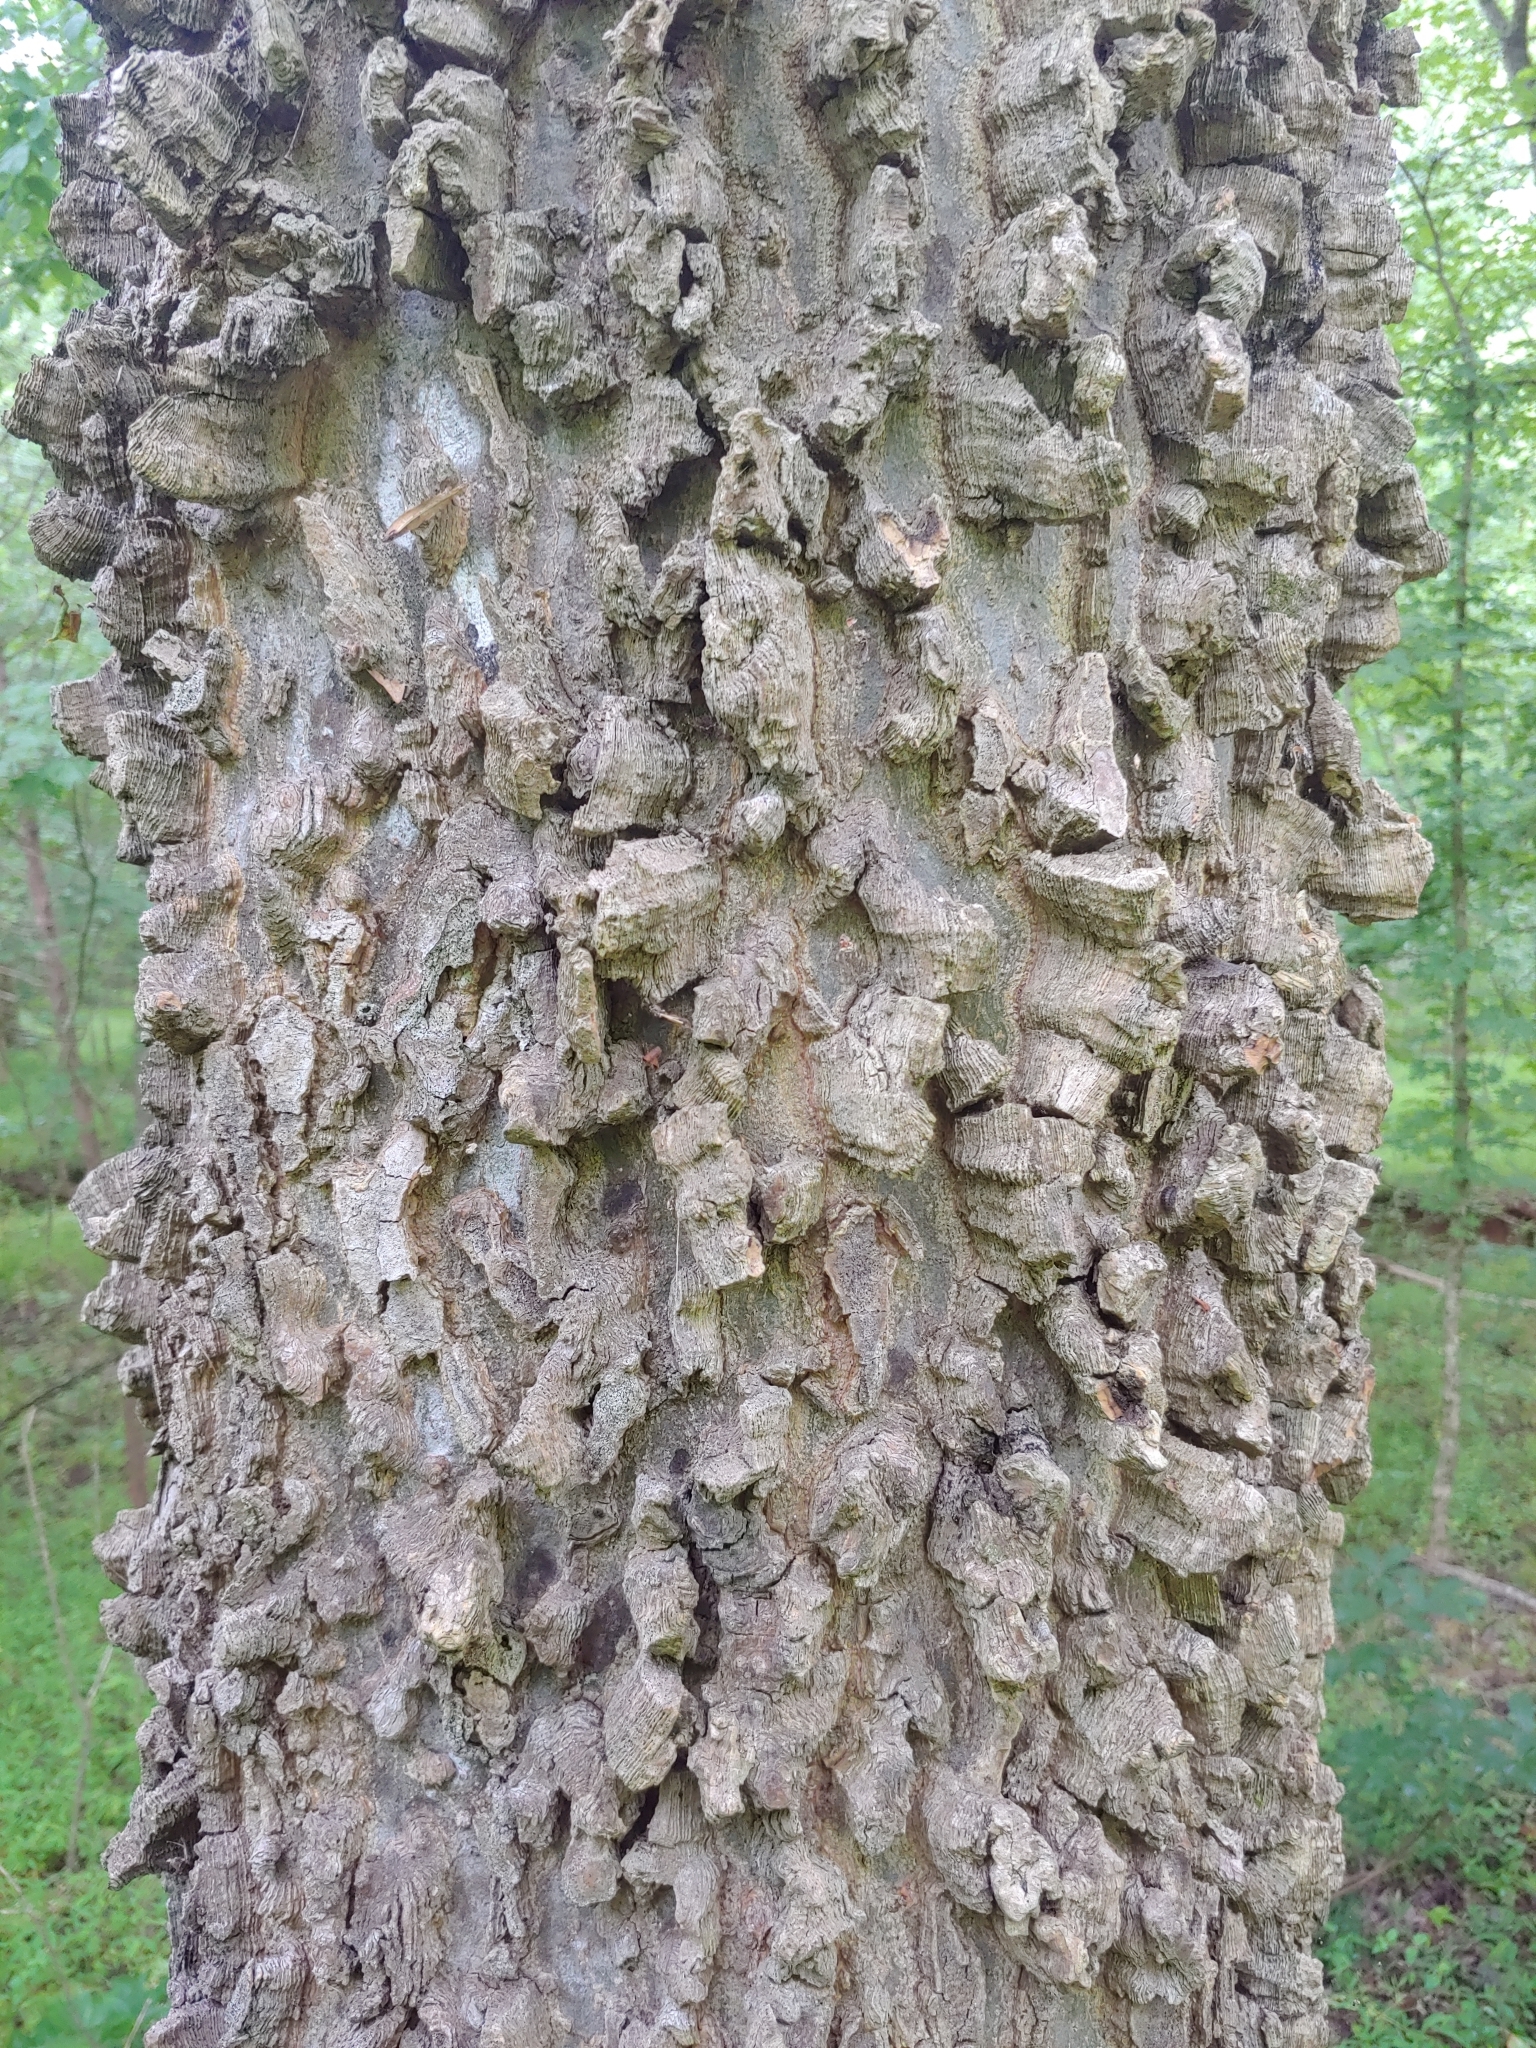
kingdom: Plantae
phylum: Tracheophyta
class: Magnoliopsida
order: Rosales
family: Cannabaceae
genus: Celtis
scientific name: Celtis occidentalis
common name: Common hackberry
